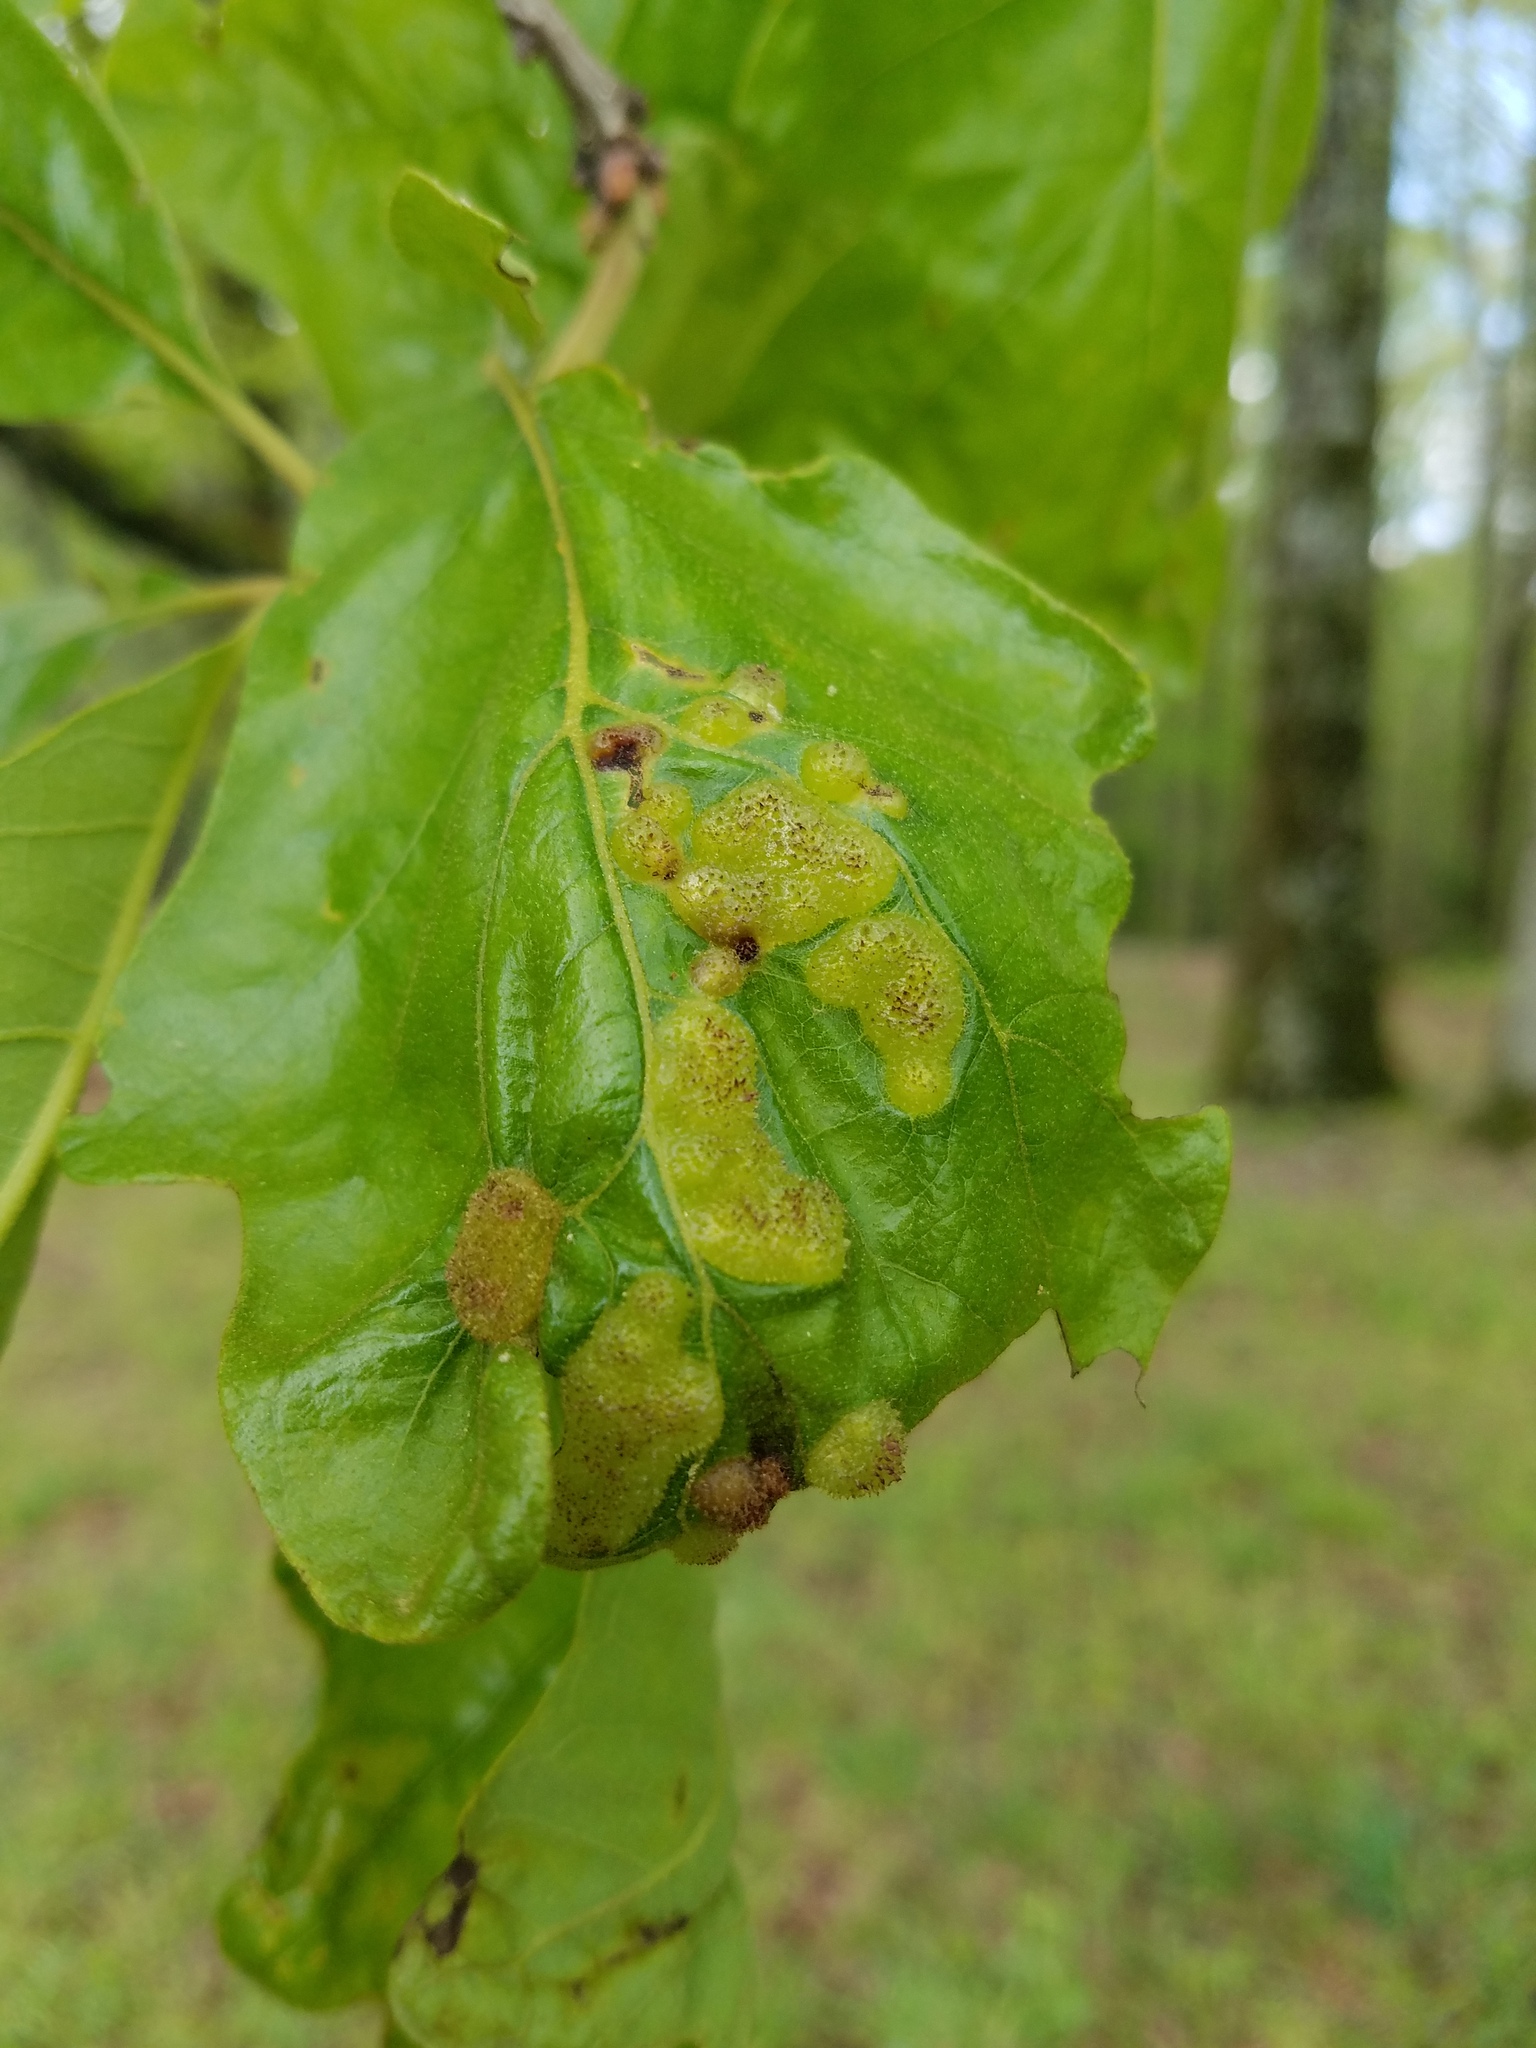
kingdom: Animalia
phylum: Arthropoda
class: Insecta
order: Hymenoptera
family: Cynipidae
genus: Neuroterus
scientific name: Neuroterus quercusirregularis
